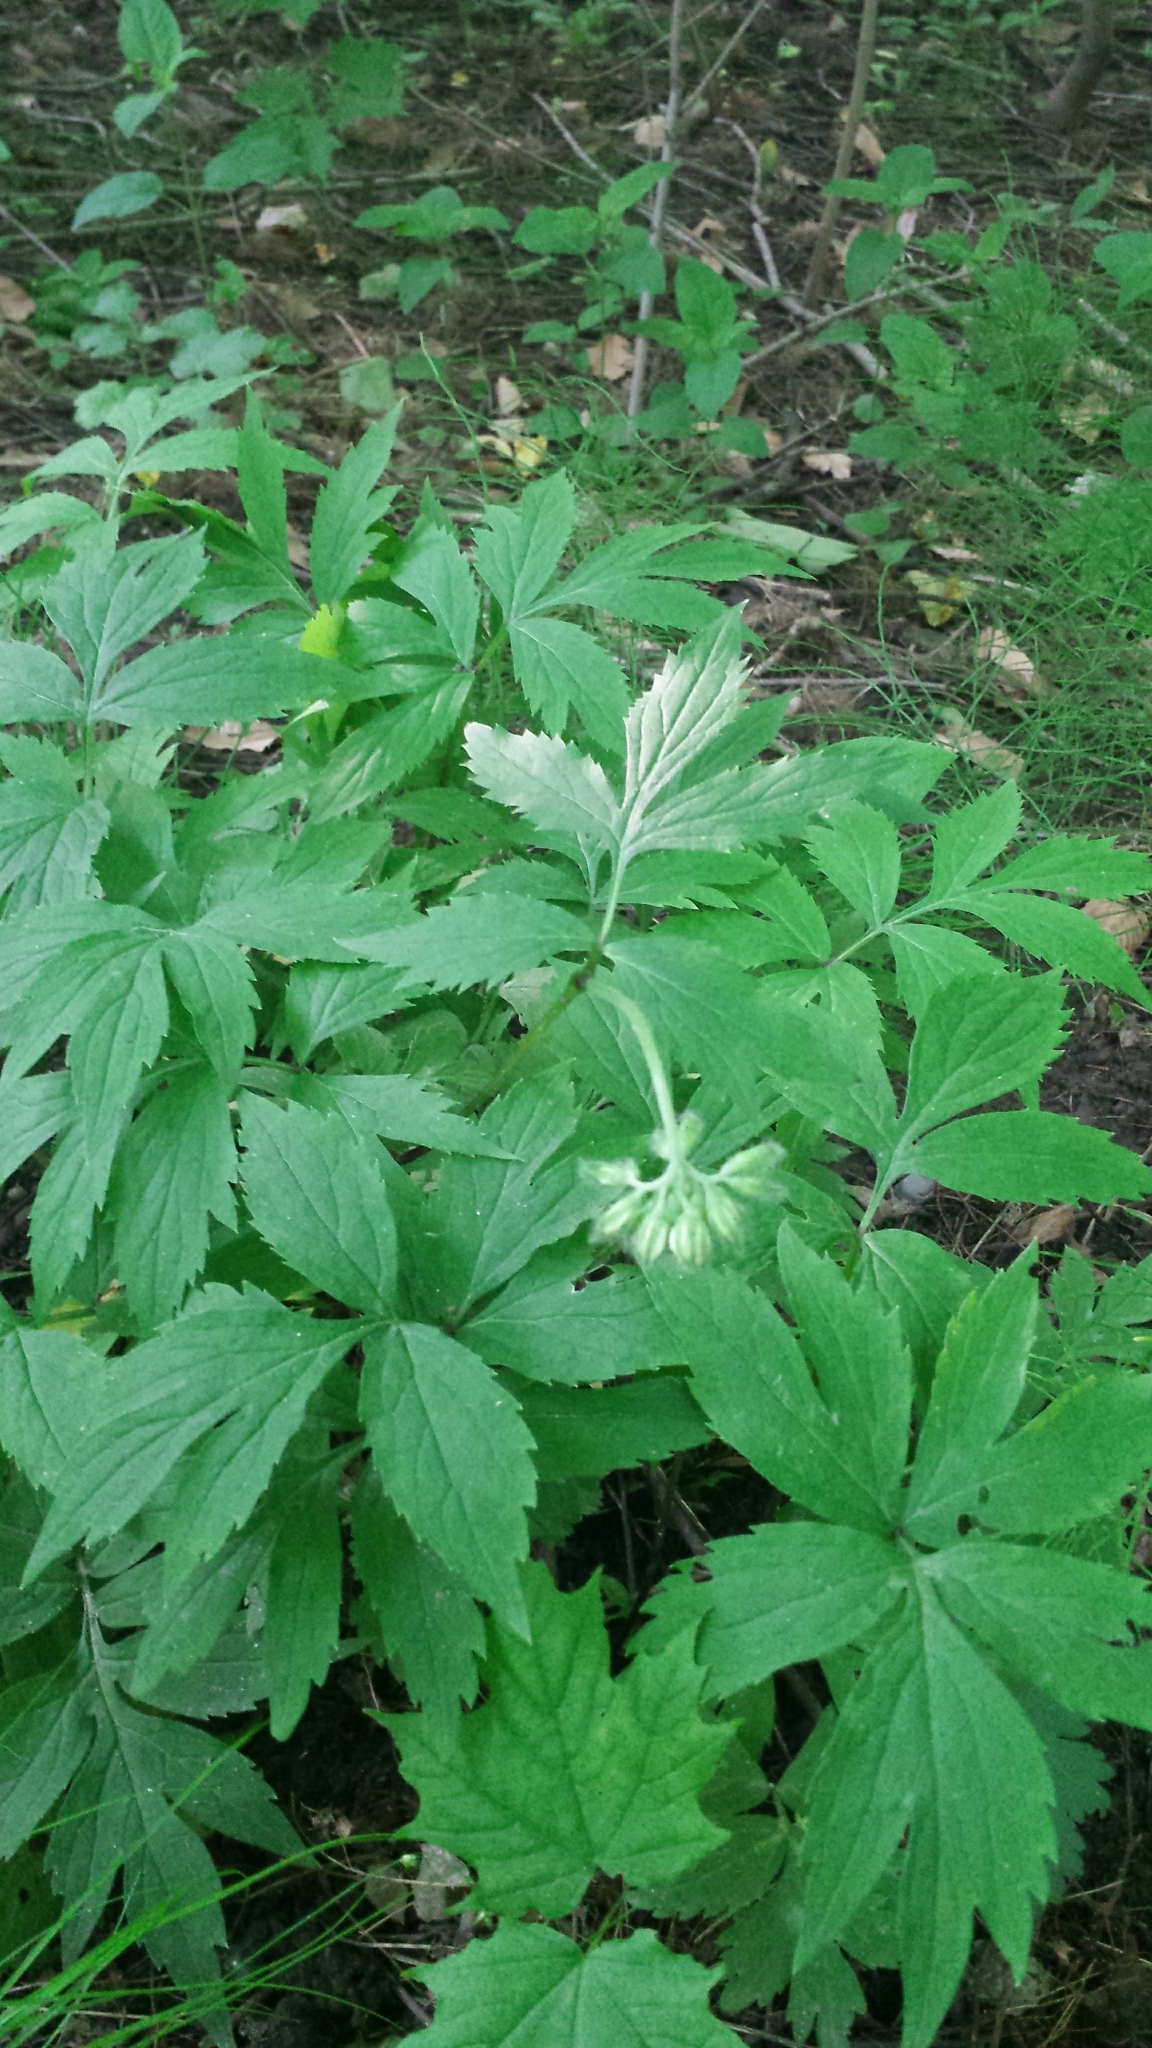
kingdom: Plantae
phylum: Tracheophyta
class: Magnoliopsida
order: Boraginales
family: Hydrophyllaceae
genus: Hydrophyllum
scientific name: Hydrophyllum virginianum
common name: Virginia waterleaf
